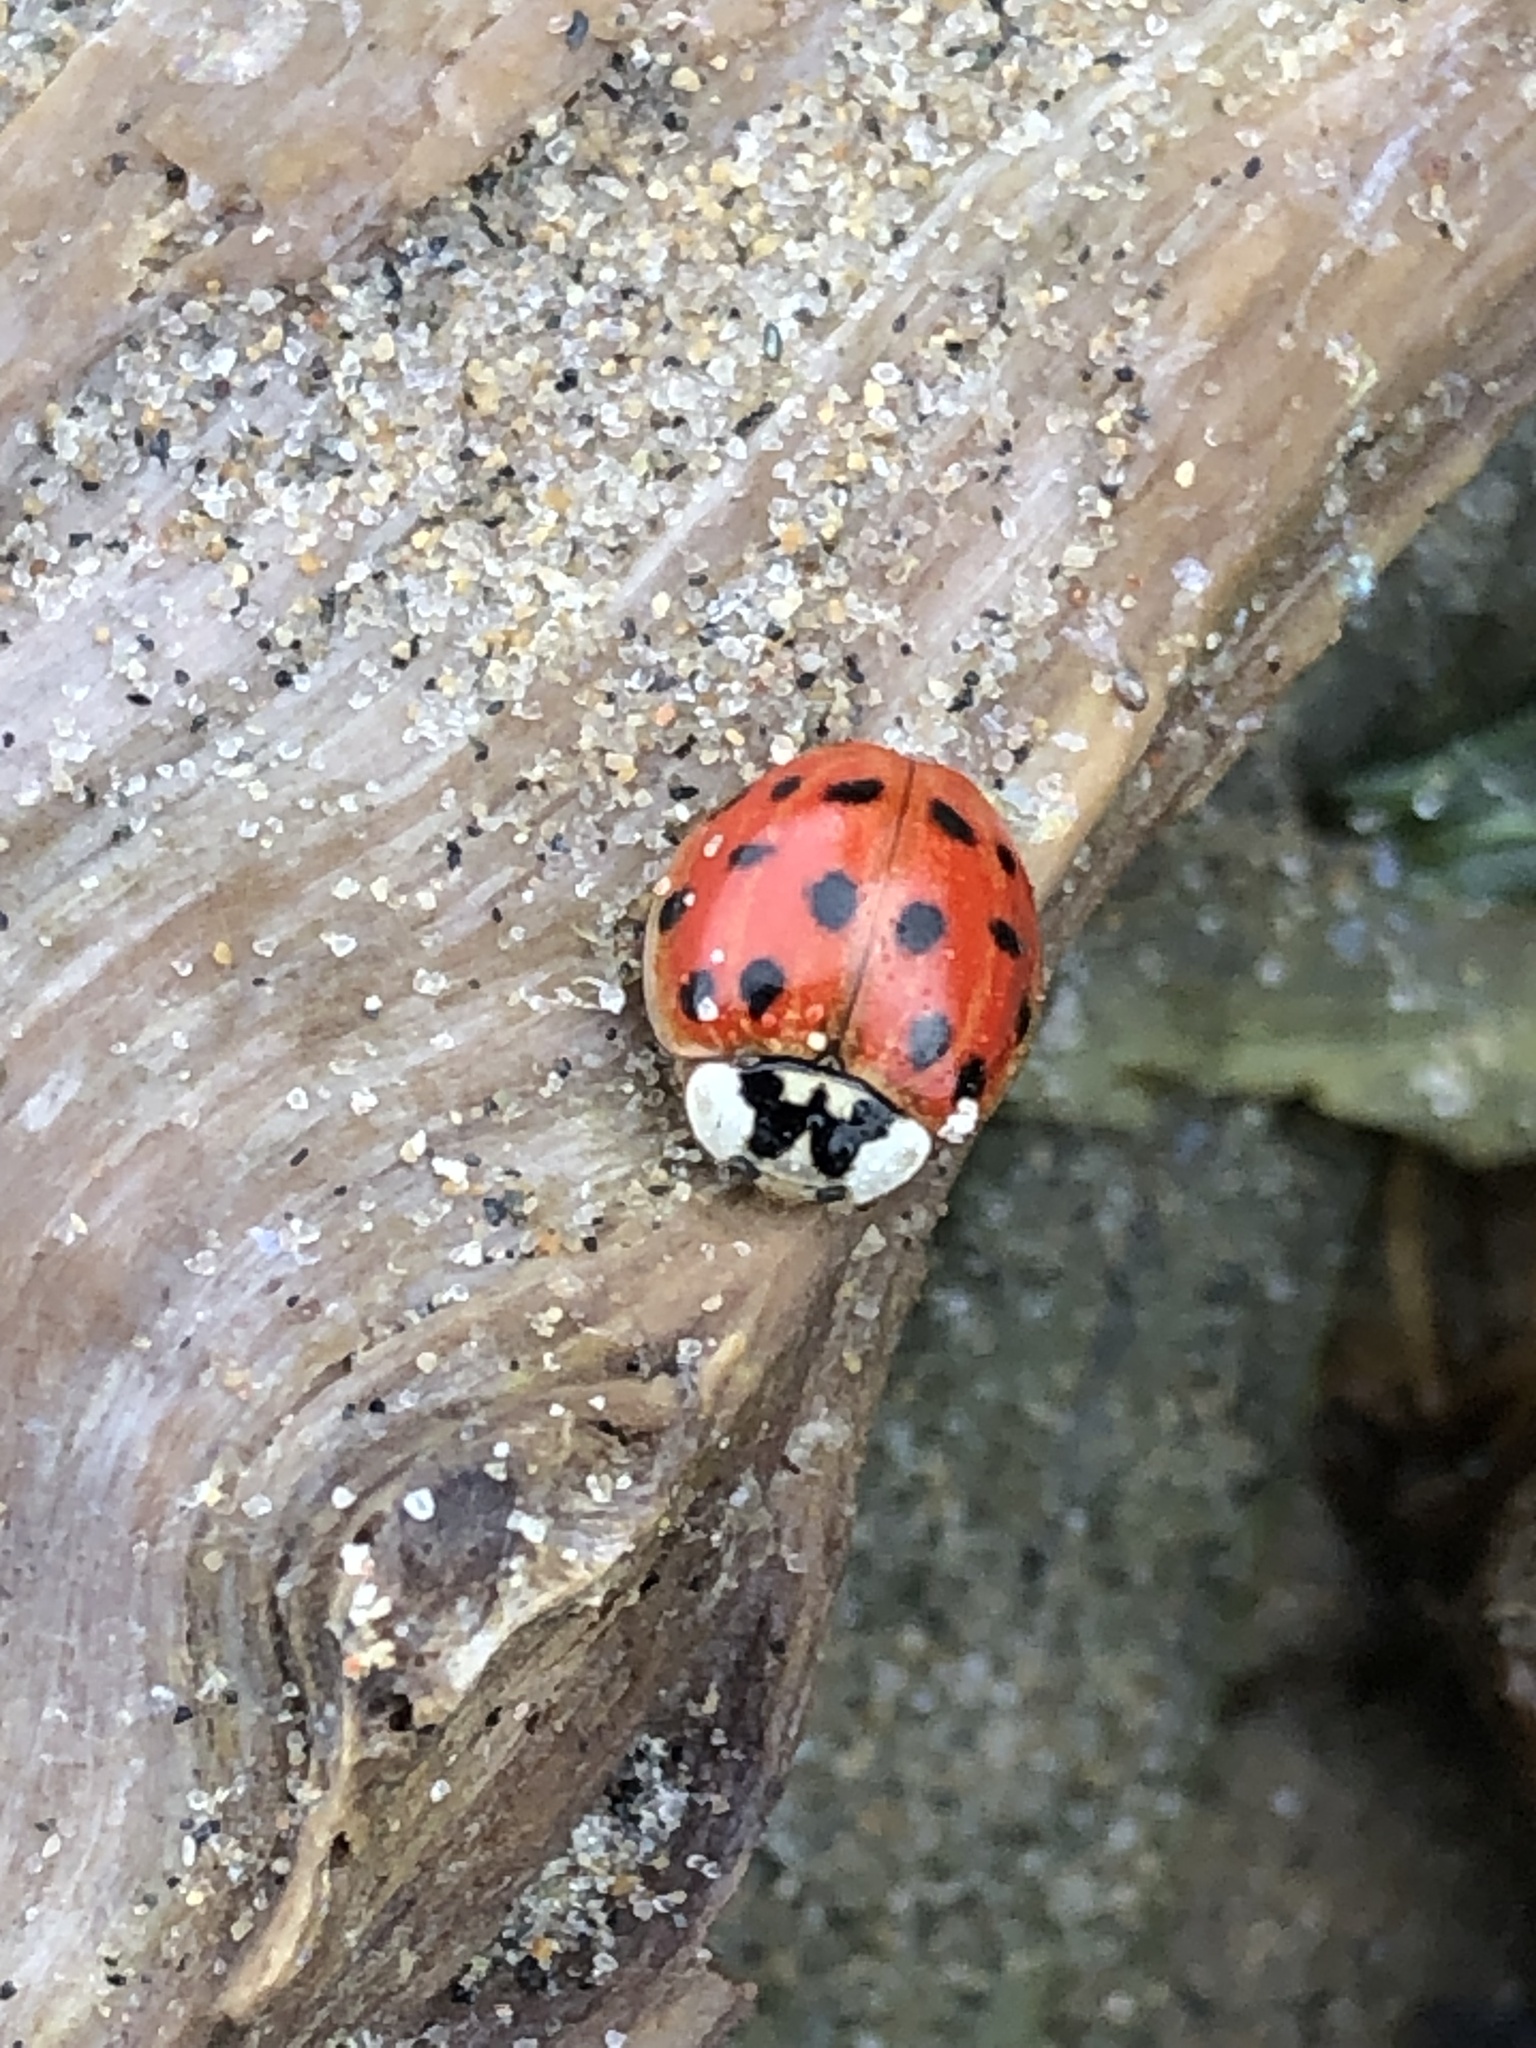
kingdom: Animalia
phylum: Arthropoda
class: Insecta
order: Coleoptera
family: Coccinellidae
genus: Harmonia
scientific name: Harmonia axyridis
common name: Harlequin ladybird
